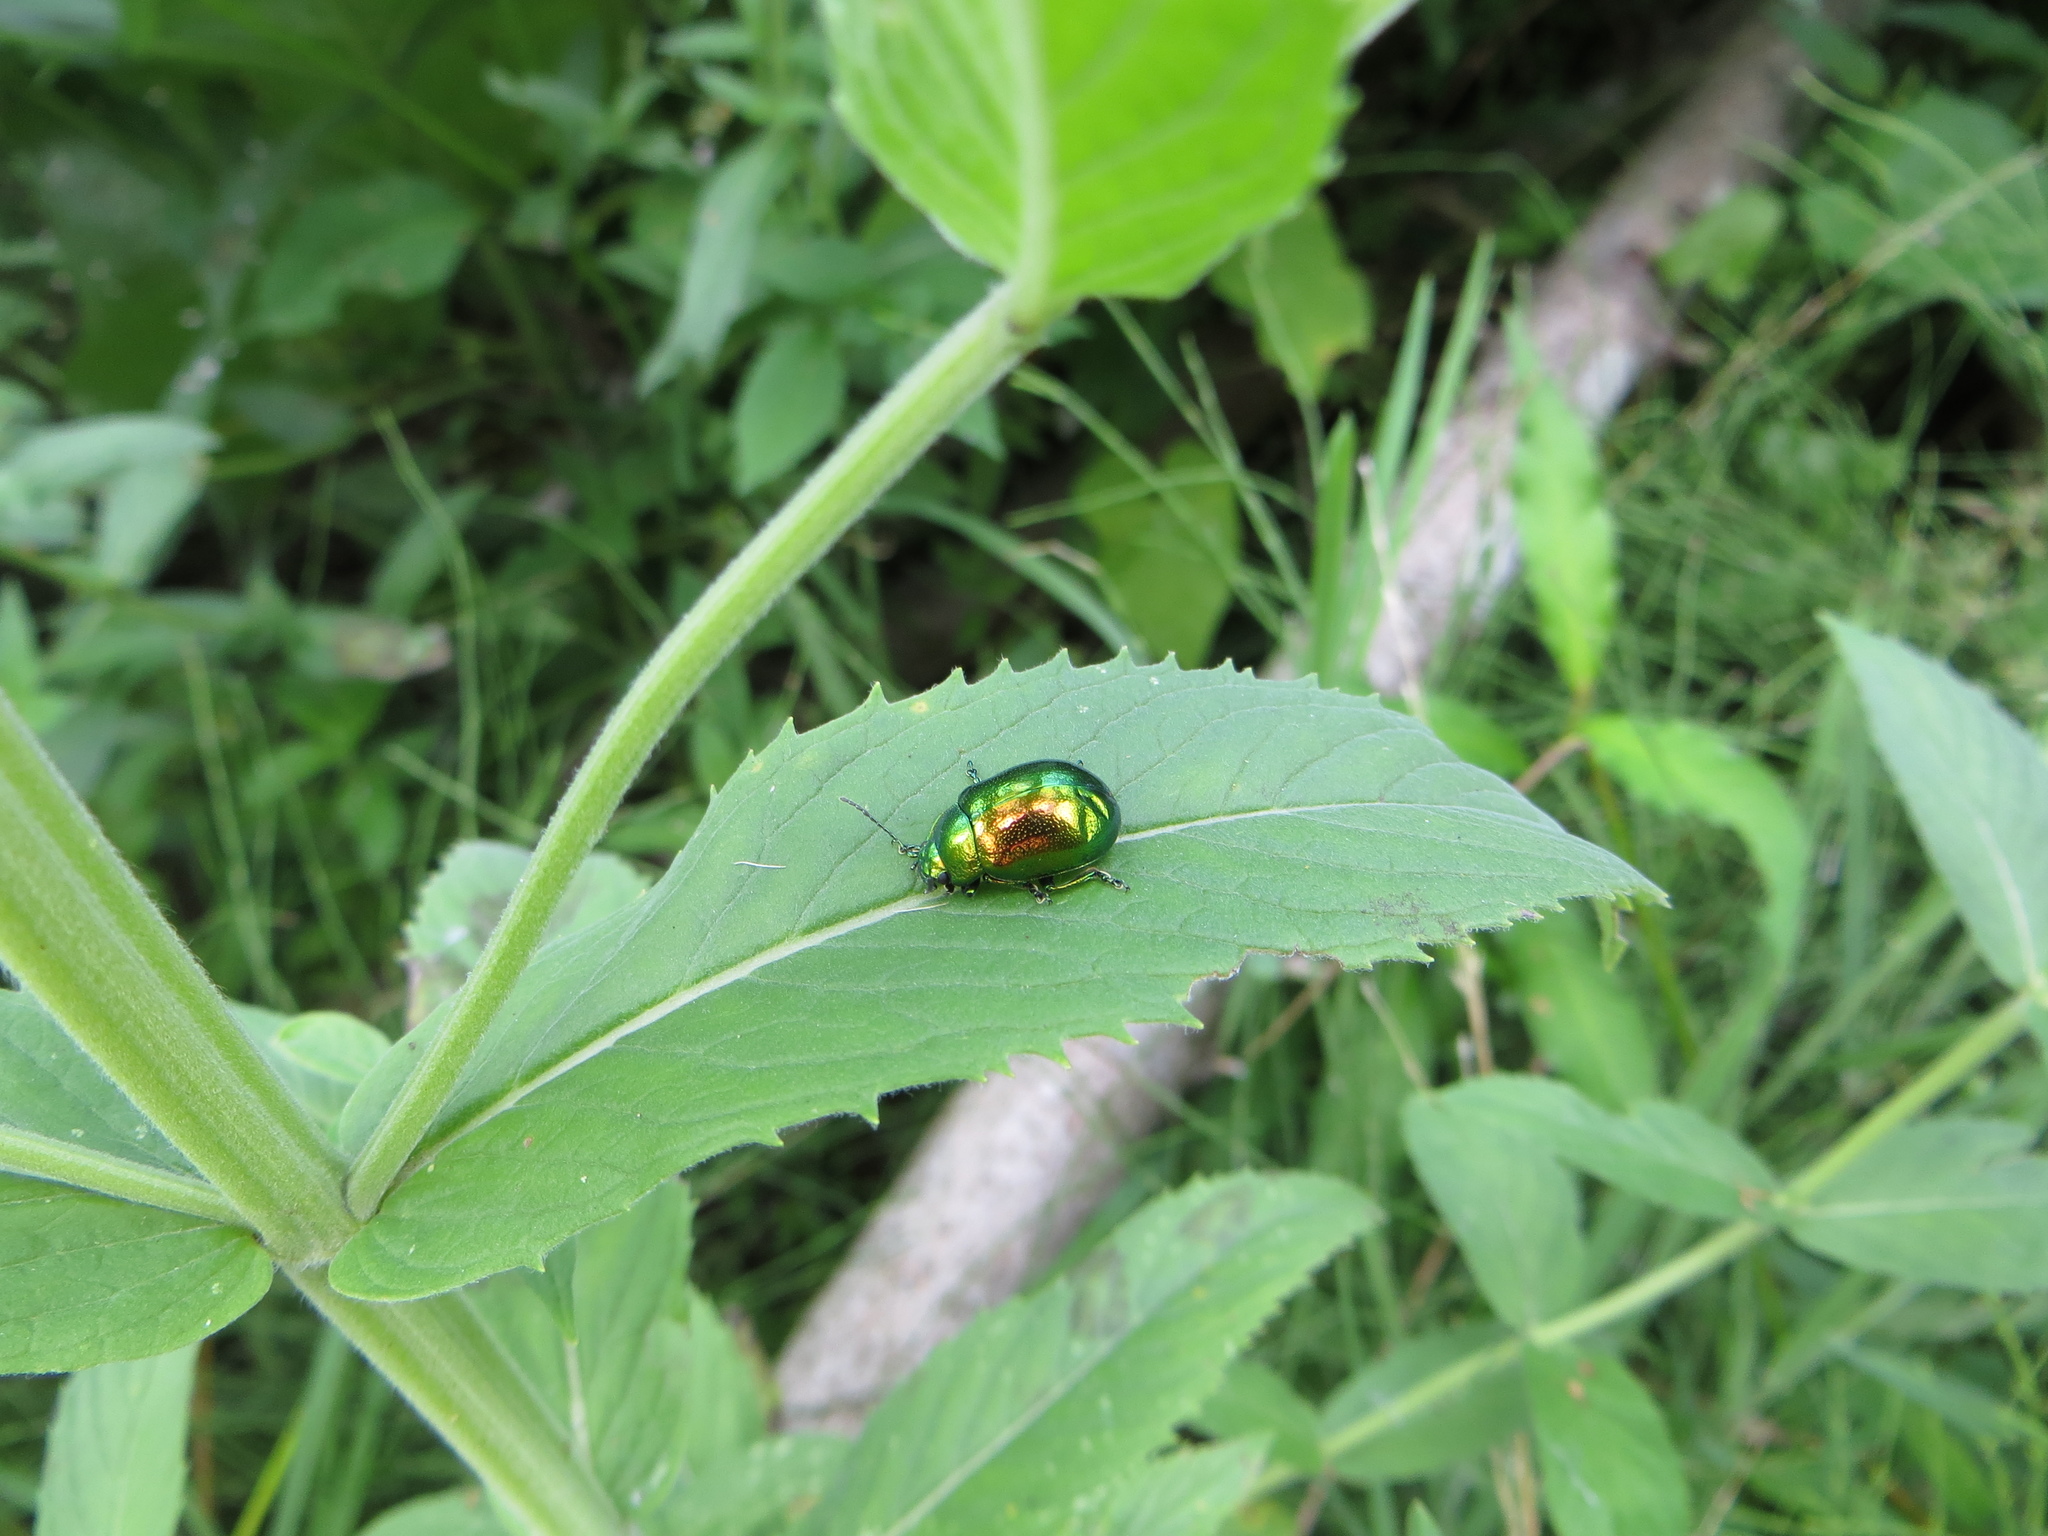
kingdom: Animalia
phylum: Arthropoda
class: Insecta
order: Coleoptera
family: Chrysomelidae
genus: Chrysolina
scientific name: Chrysolina herbacea
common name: Mint leaf beatle
